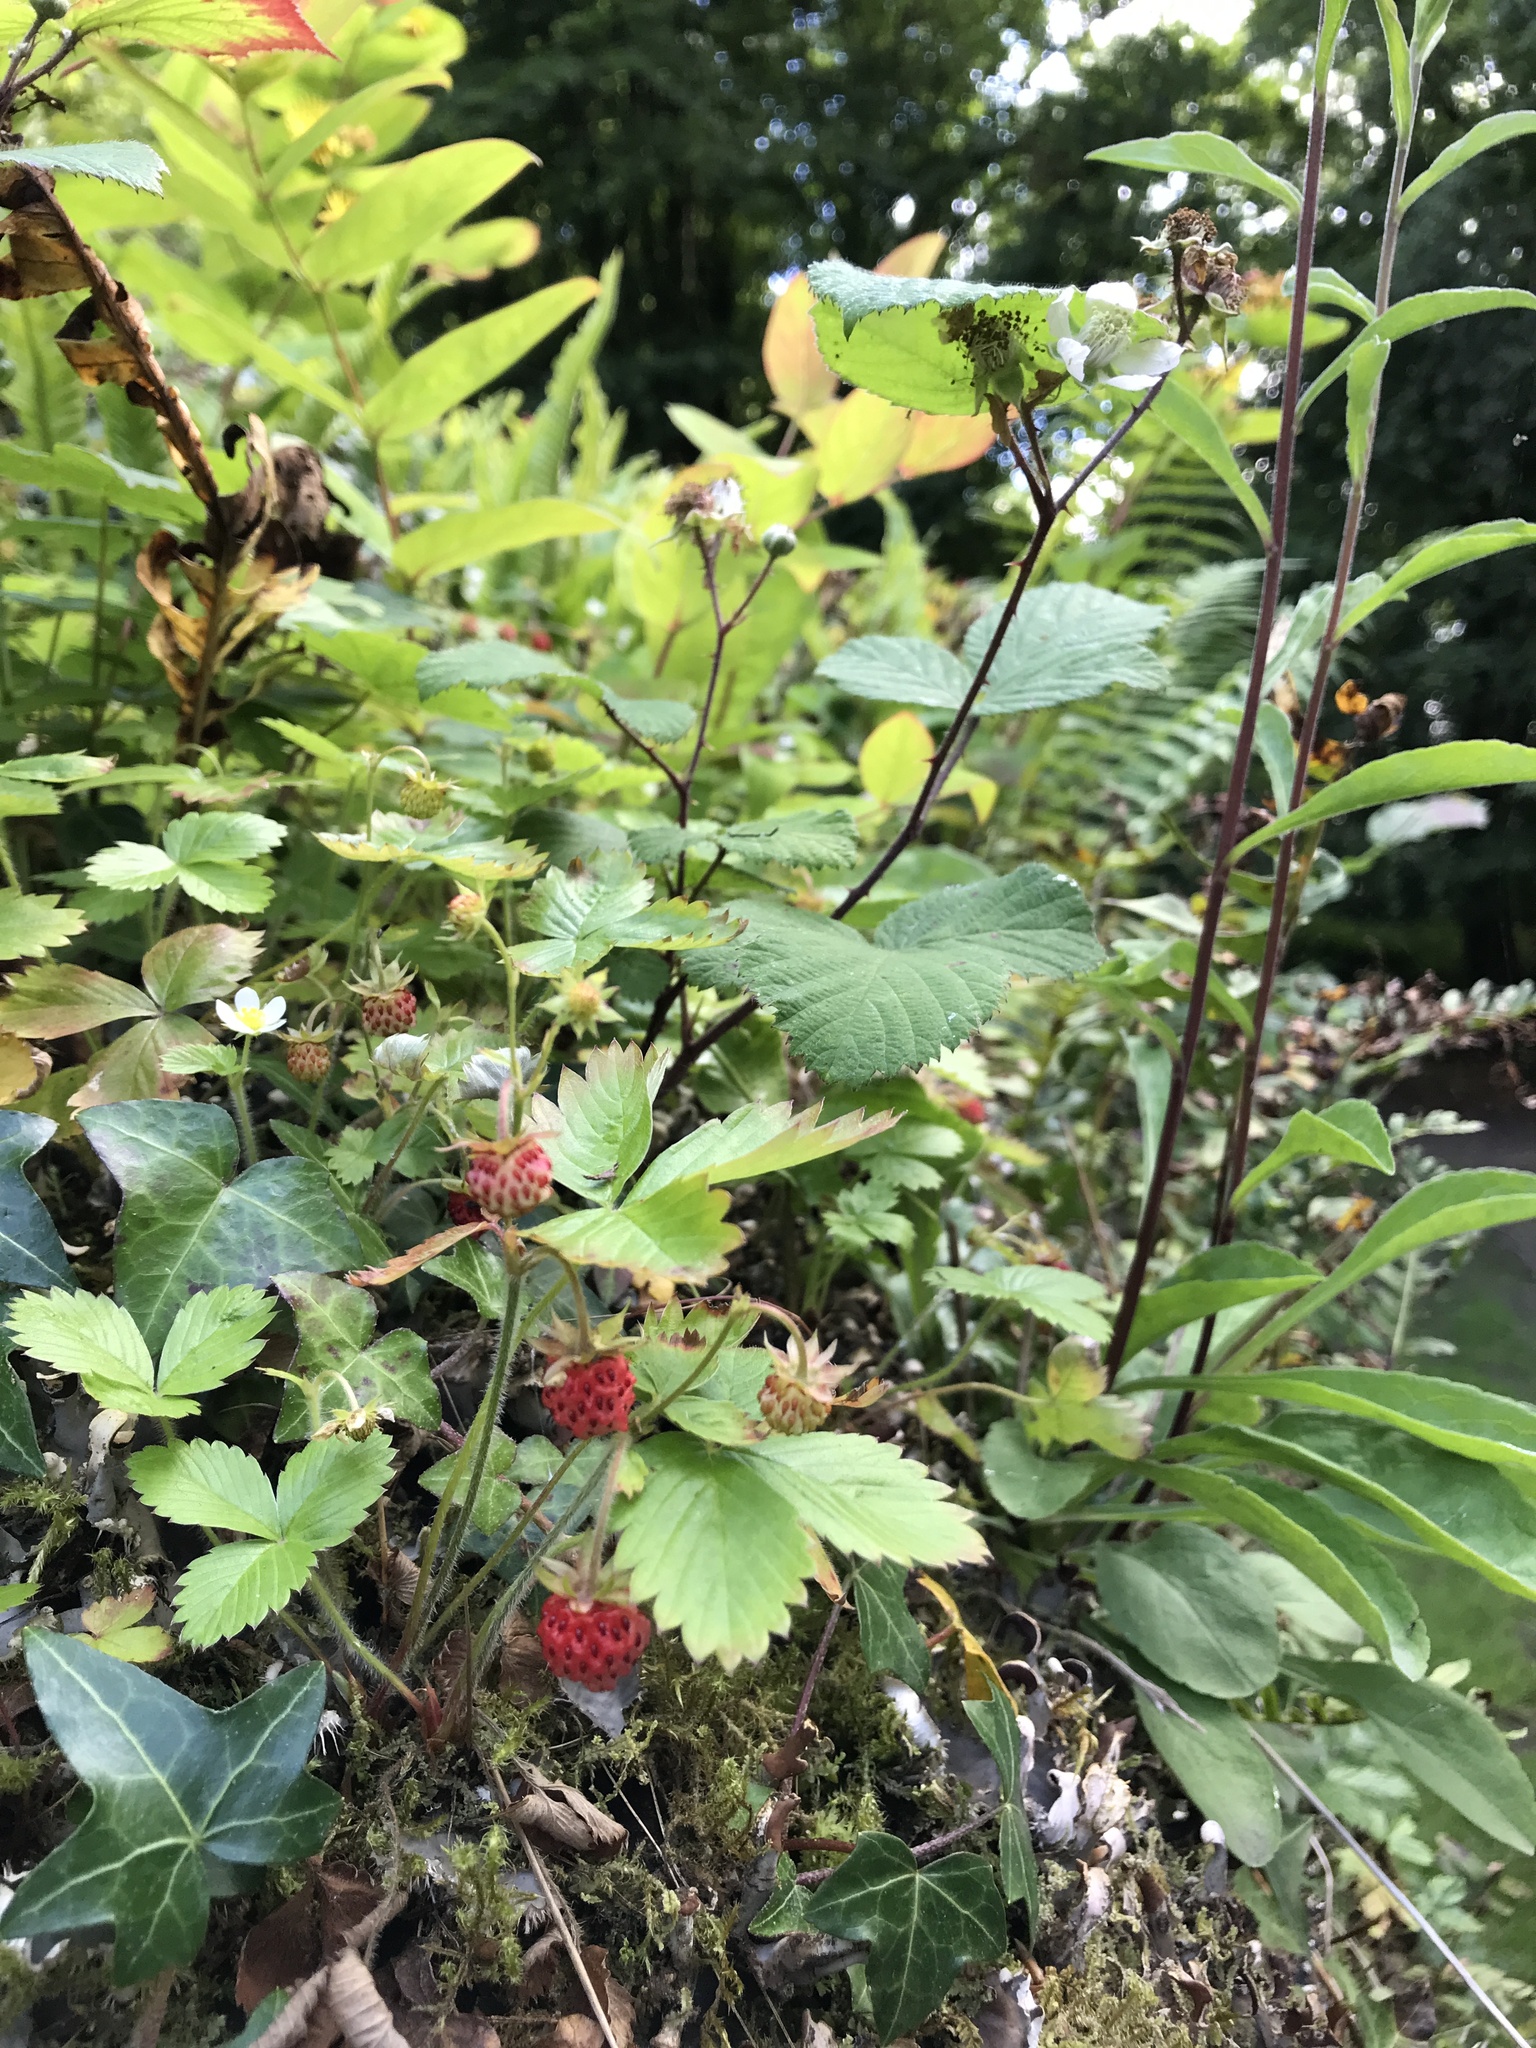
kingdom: Plantae
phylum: Tracheophyta
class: Magnoliopsida
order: Rosales
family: Rosaceae
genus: Fragaria
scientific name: Fragaria vesca
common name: Wild strawberry
